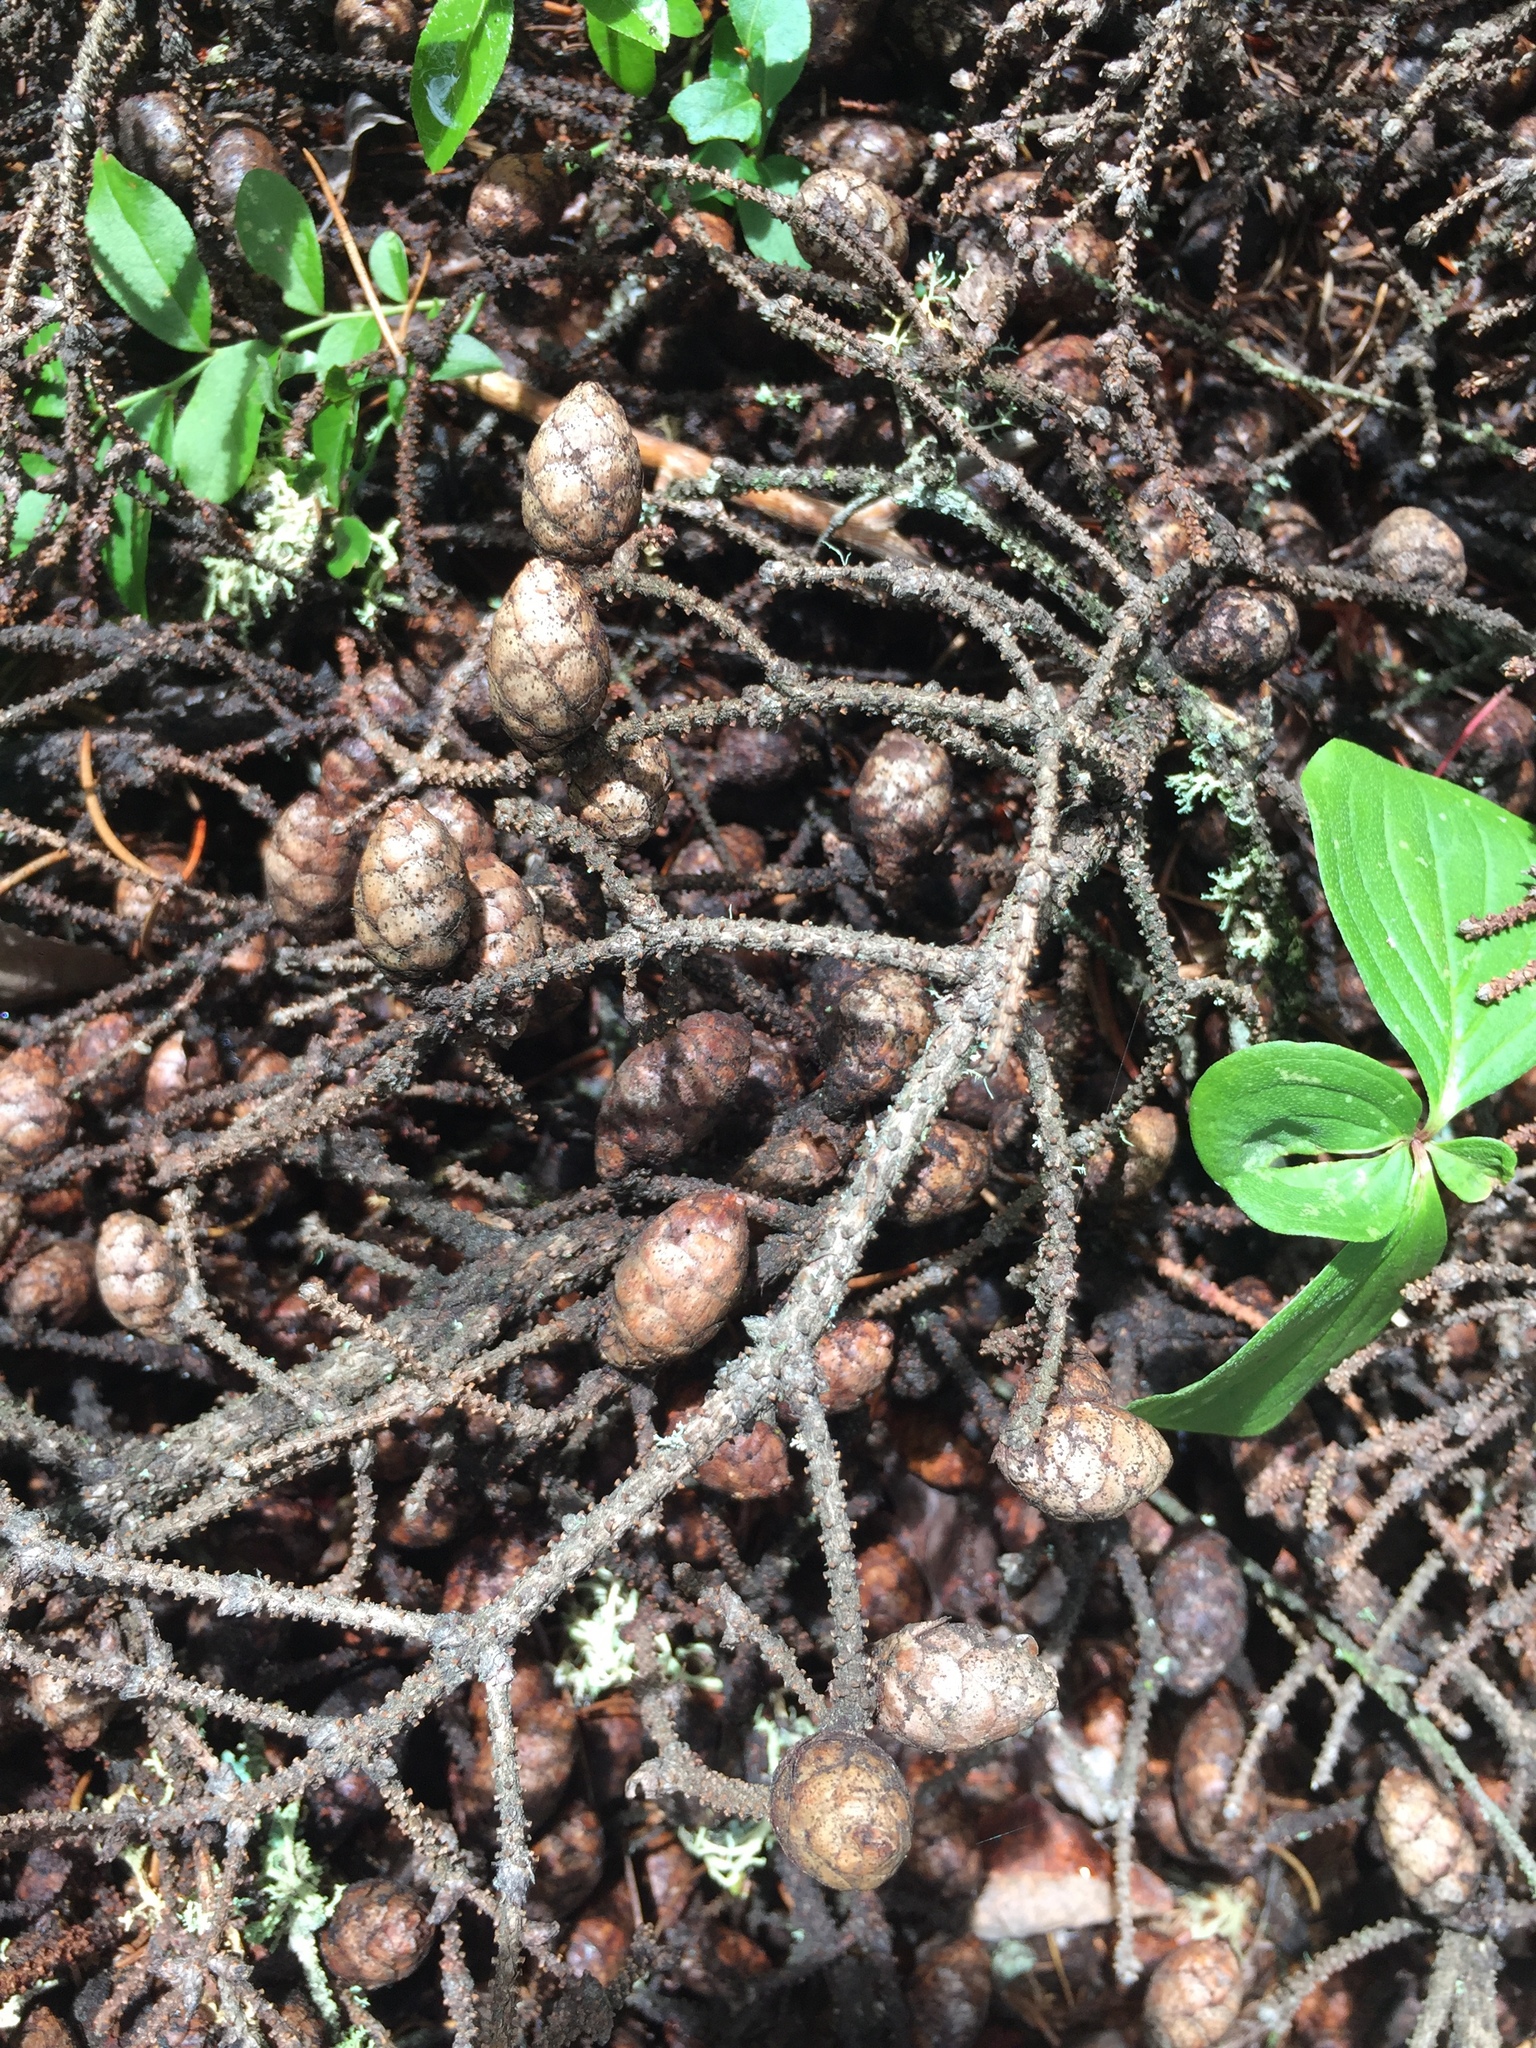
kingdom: Plantae
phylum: Tracheophyta
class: Pinopsida
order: Pinales
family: Pinaceae
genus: Picea
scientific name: Picea mariana
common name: Black spruce
